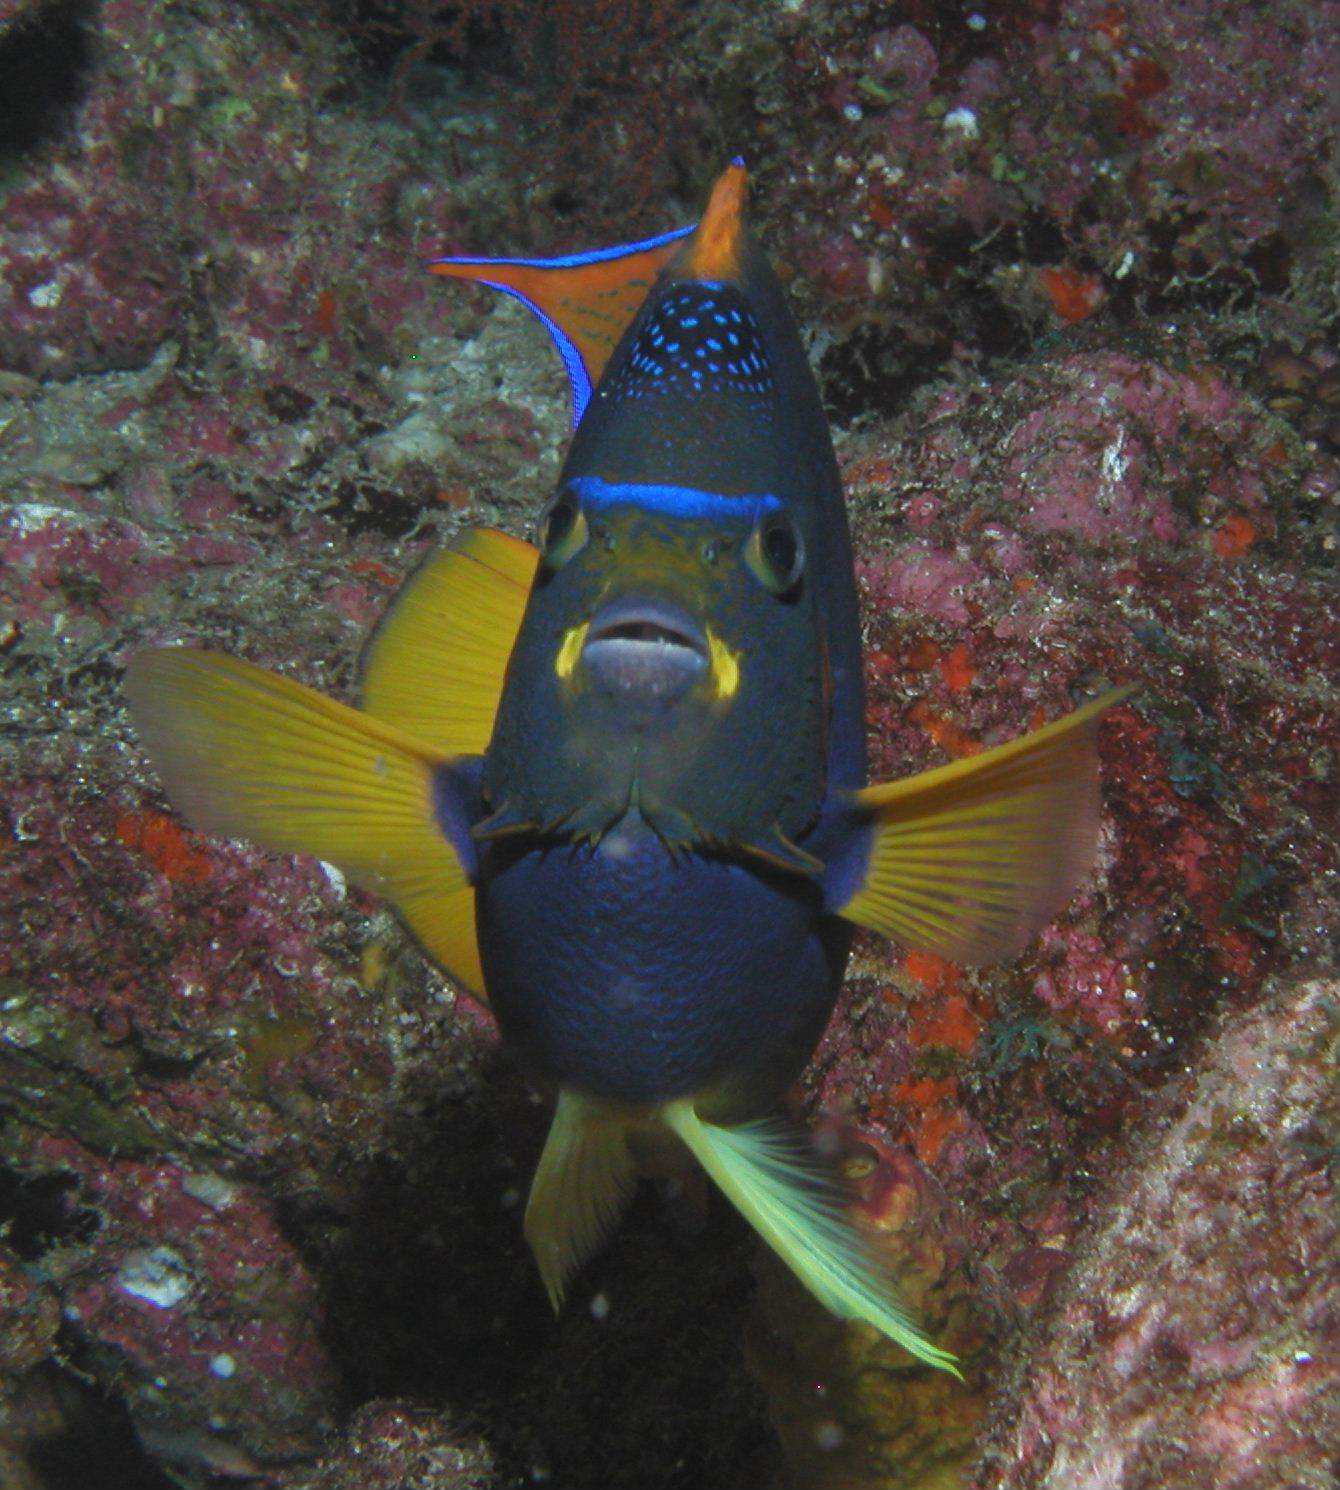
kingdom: Animalia
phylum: Chordata
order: Perciformes
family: Pomacanthidae
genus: Holacanthus
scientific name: Holacanthus passer
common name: King angelfish
